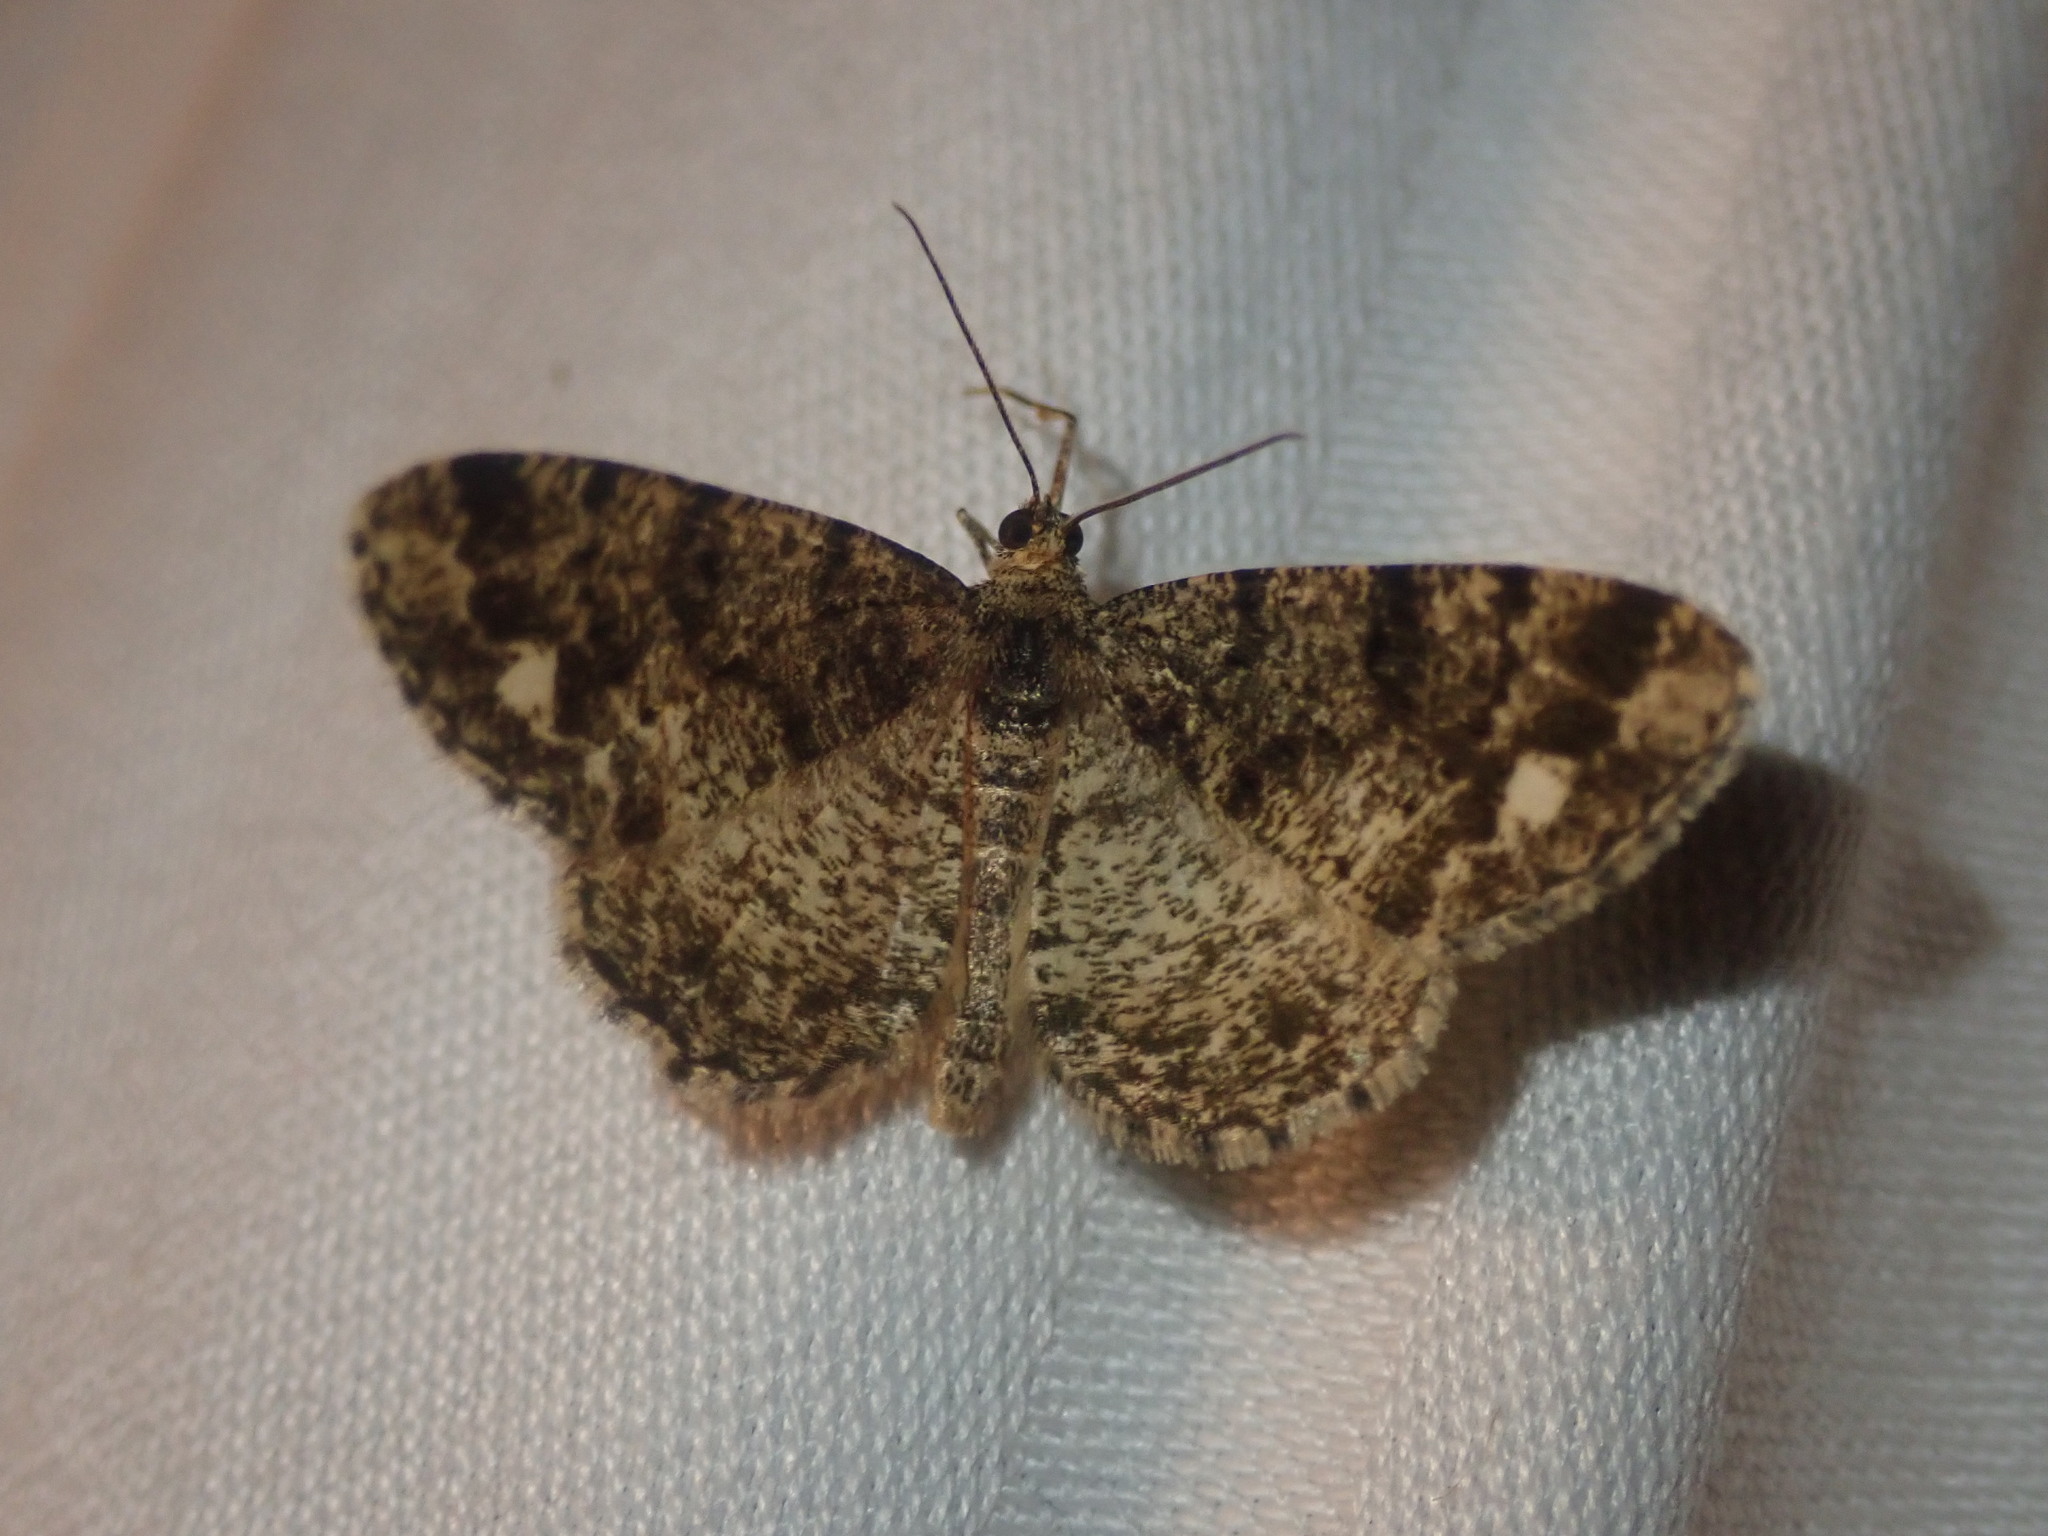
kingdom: Animalia
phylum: Arthropoda
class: Insecta
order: Lepidoptera
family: Geometridae
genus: Parectropis
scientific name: Parectropis similaria
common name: Brindled white-spot
